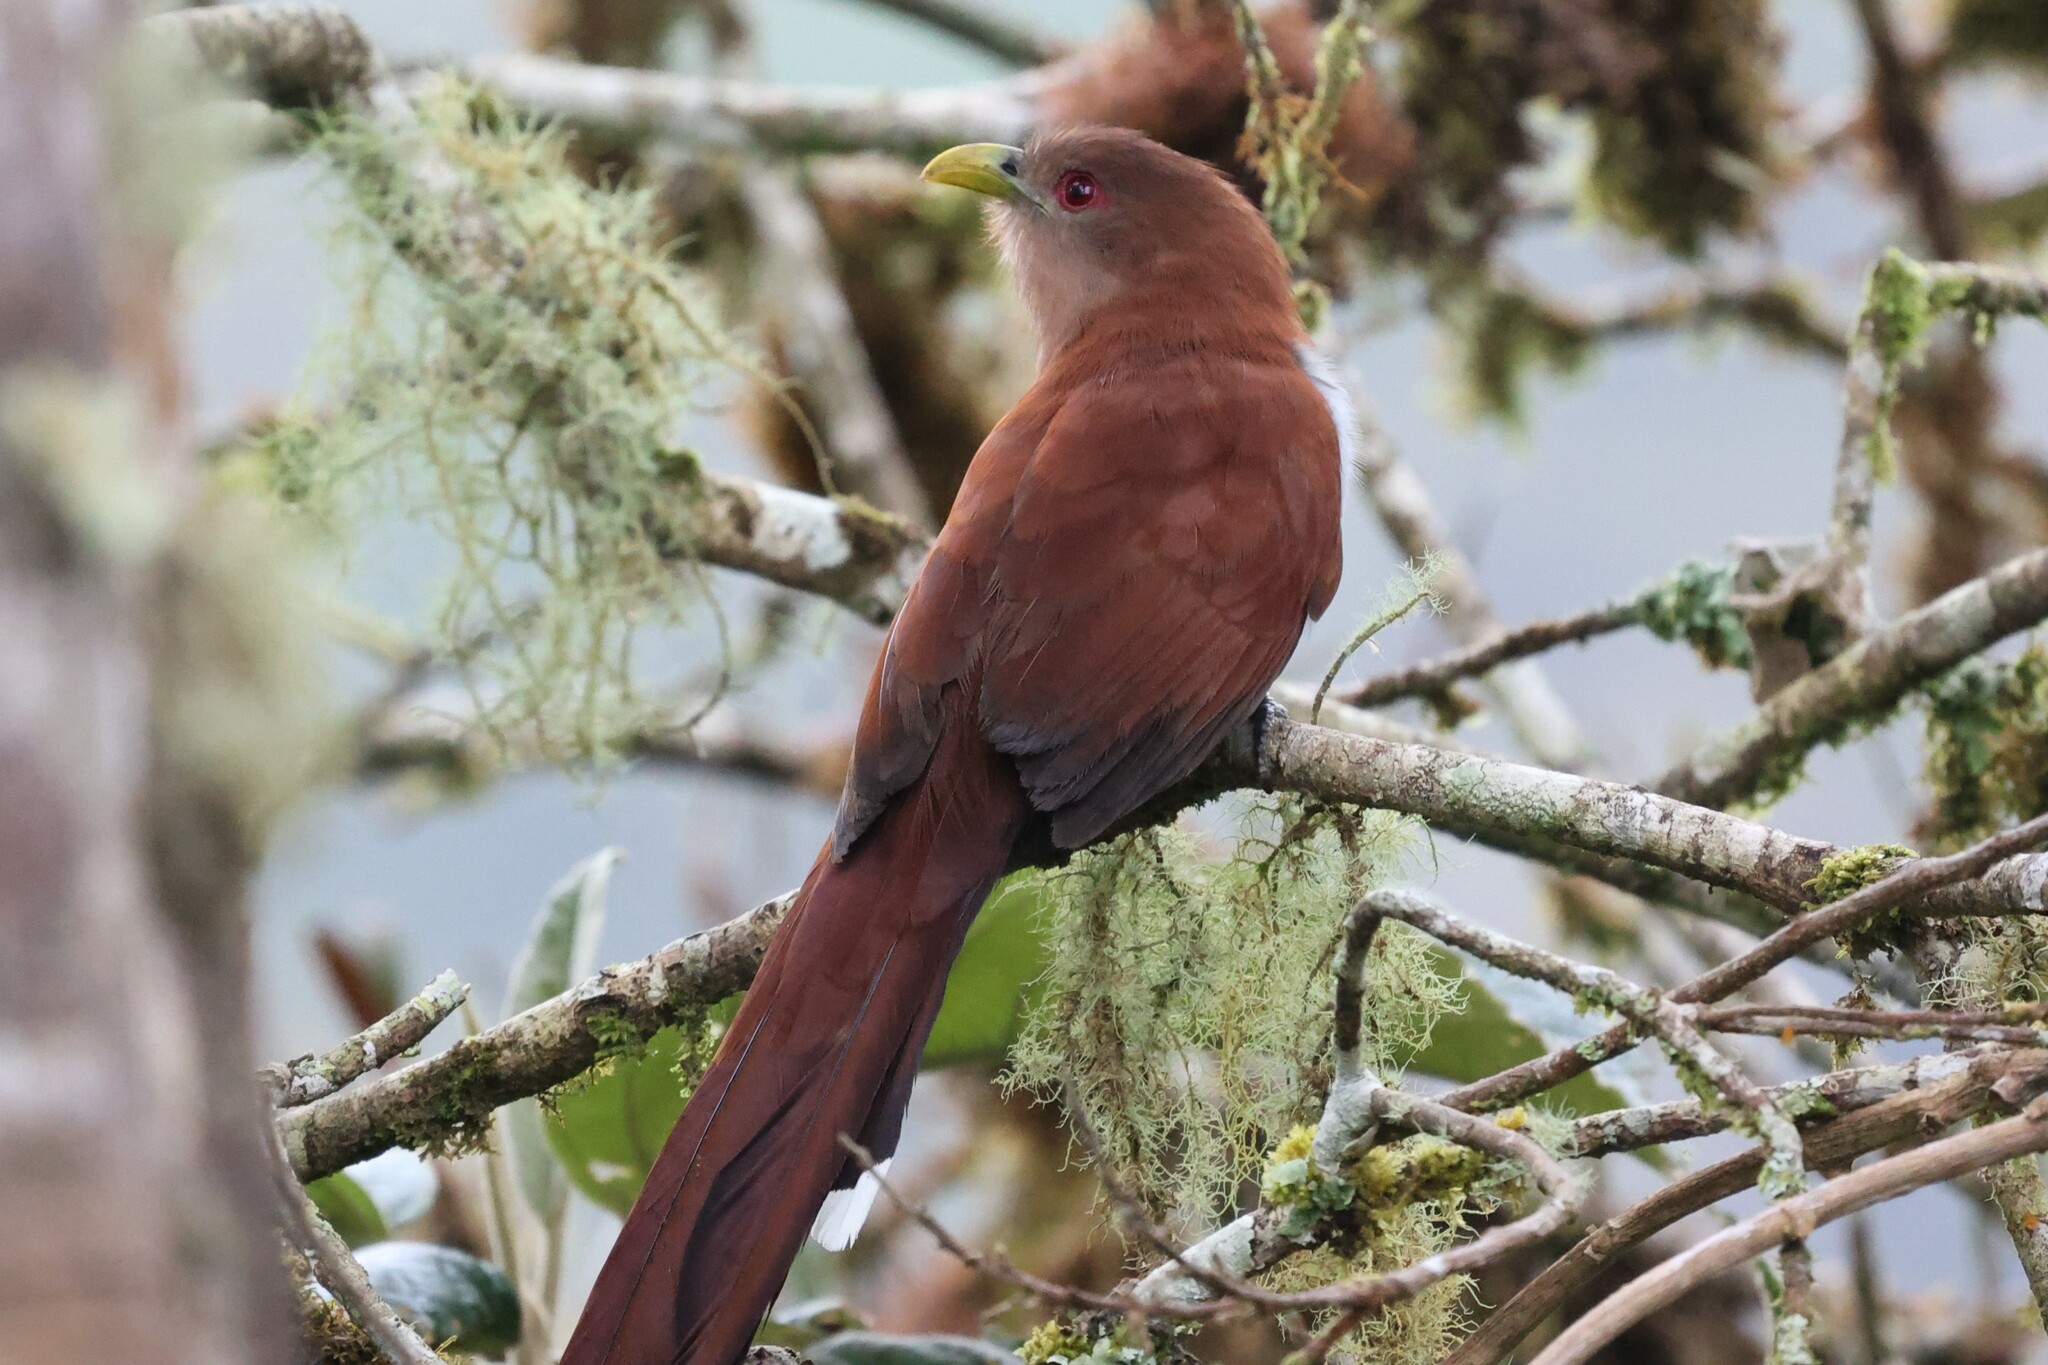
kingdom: Animalia
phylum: Chordata
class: Aves
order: Cuculiformes
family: Cuculidae
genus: Piaya
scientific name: Piaya cayana
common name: Squirrel cuckoo
